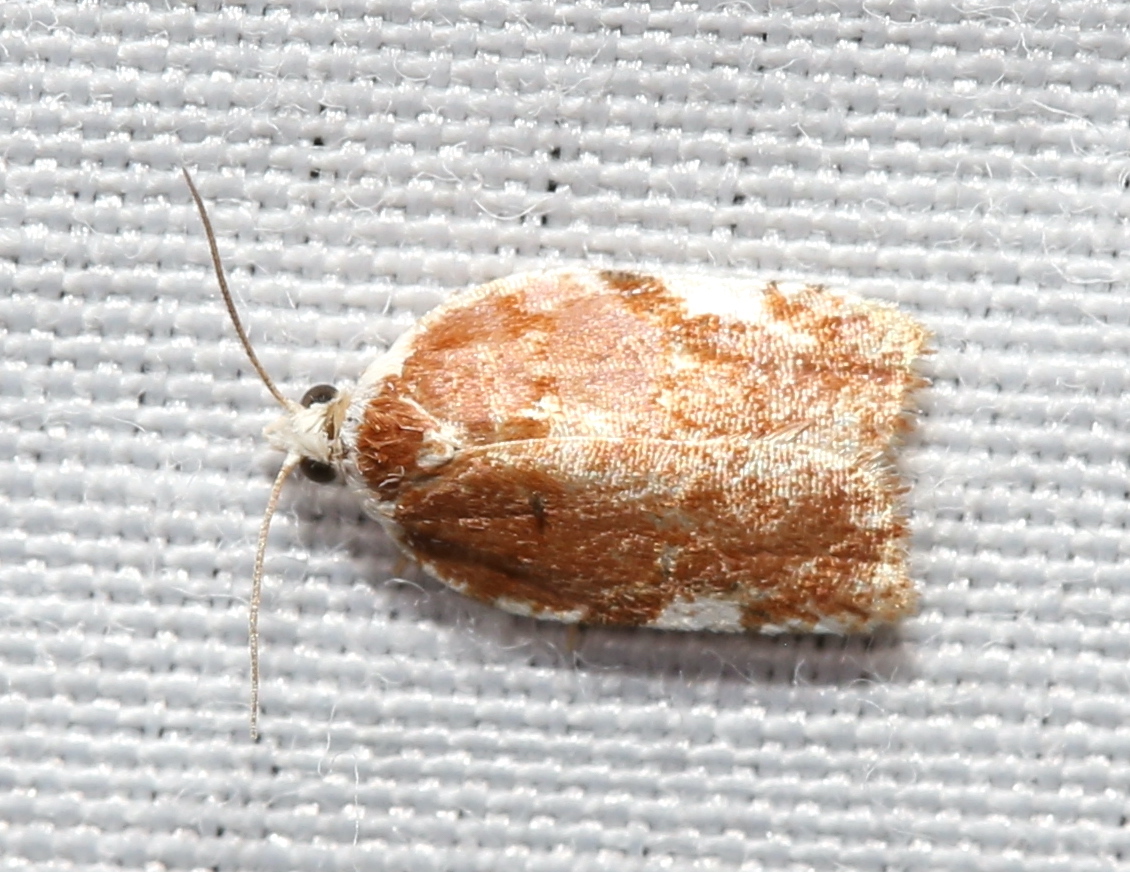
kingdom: Animalia
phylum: Arthropoda
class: Insecta
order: Lepidoptera
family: Tortricidae
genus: Acleris
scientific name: Acleris cervinana
